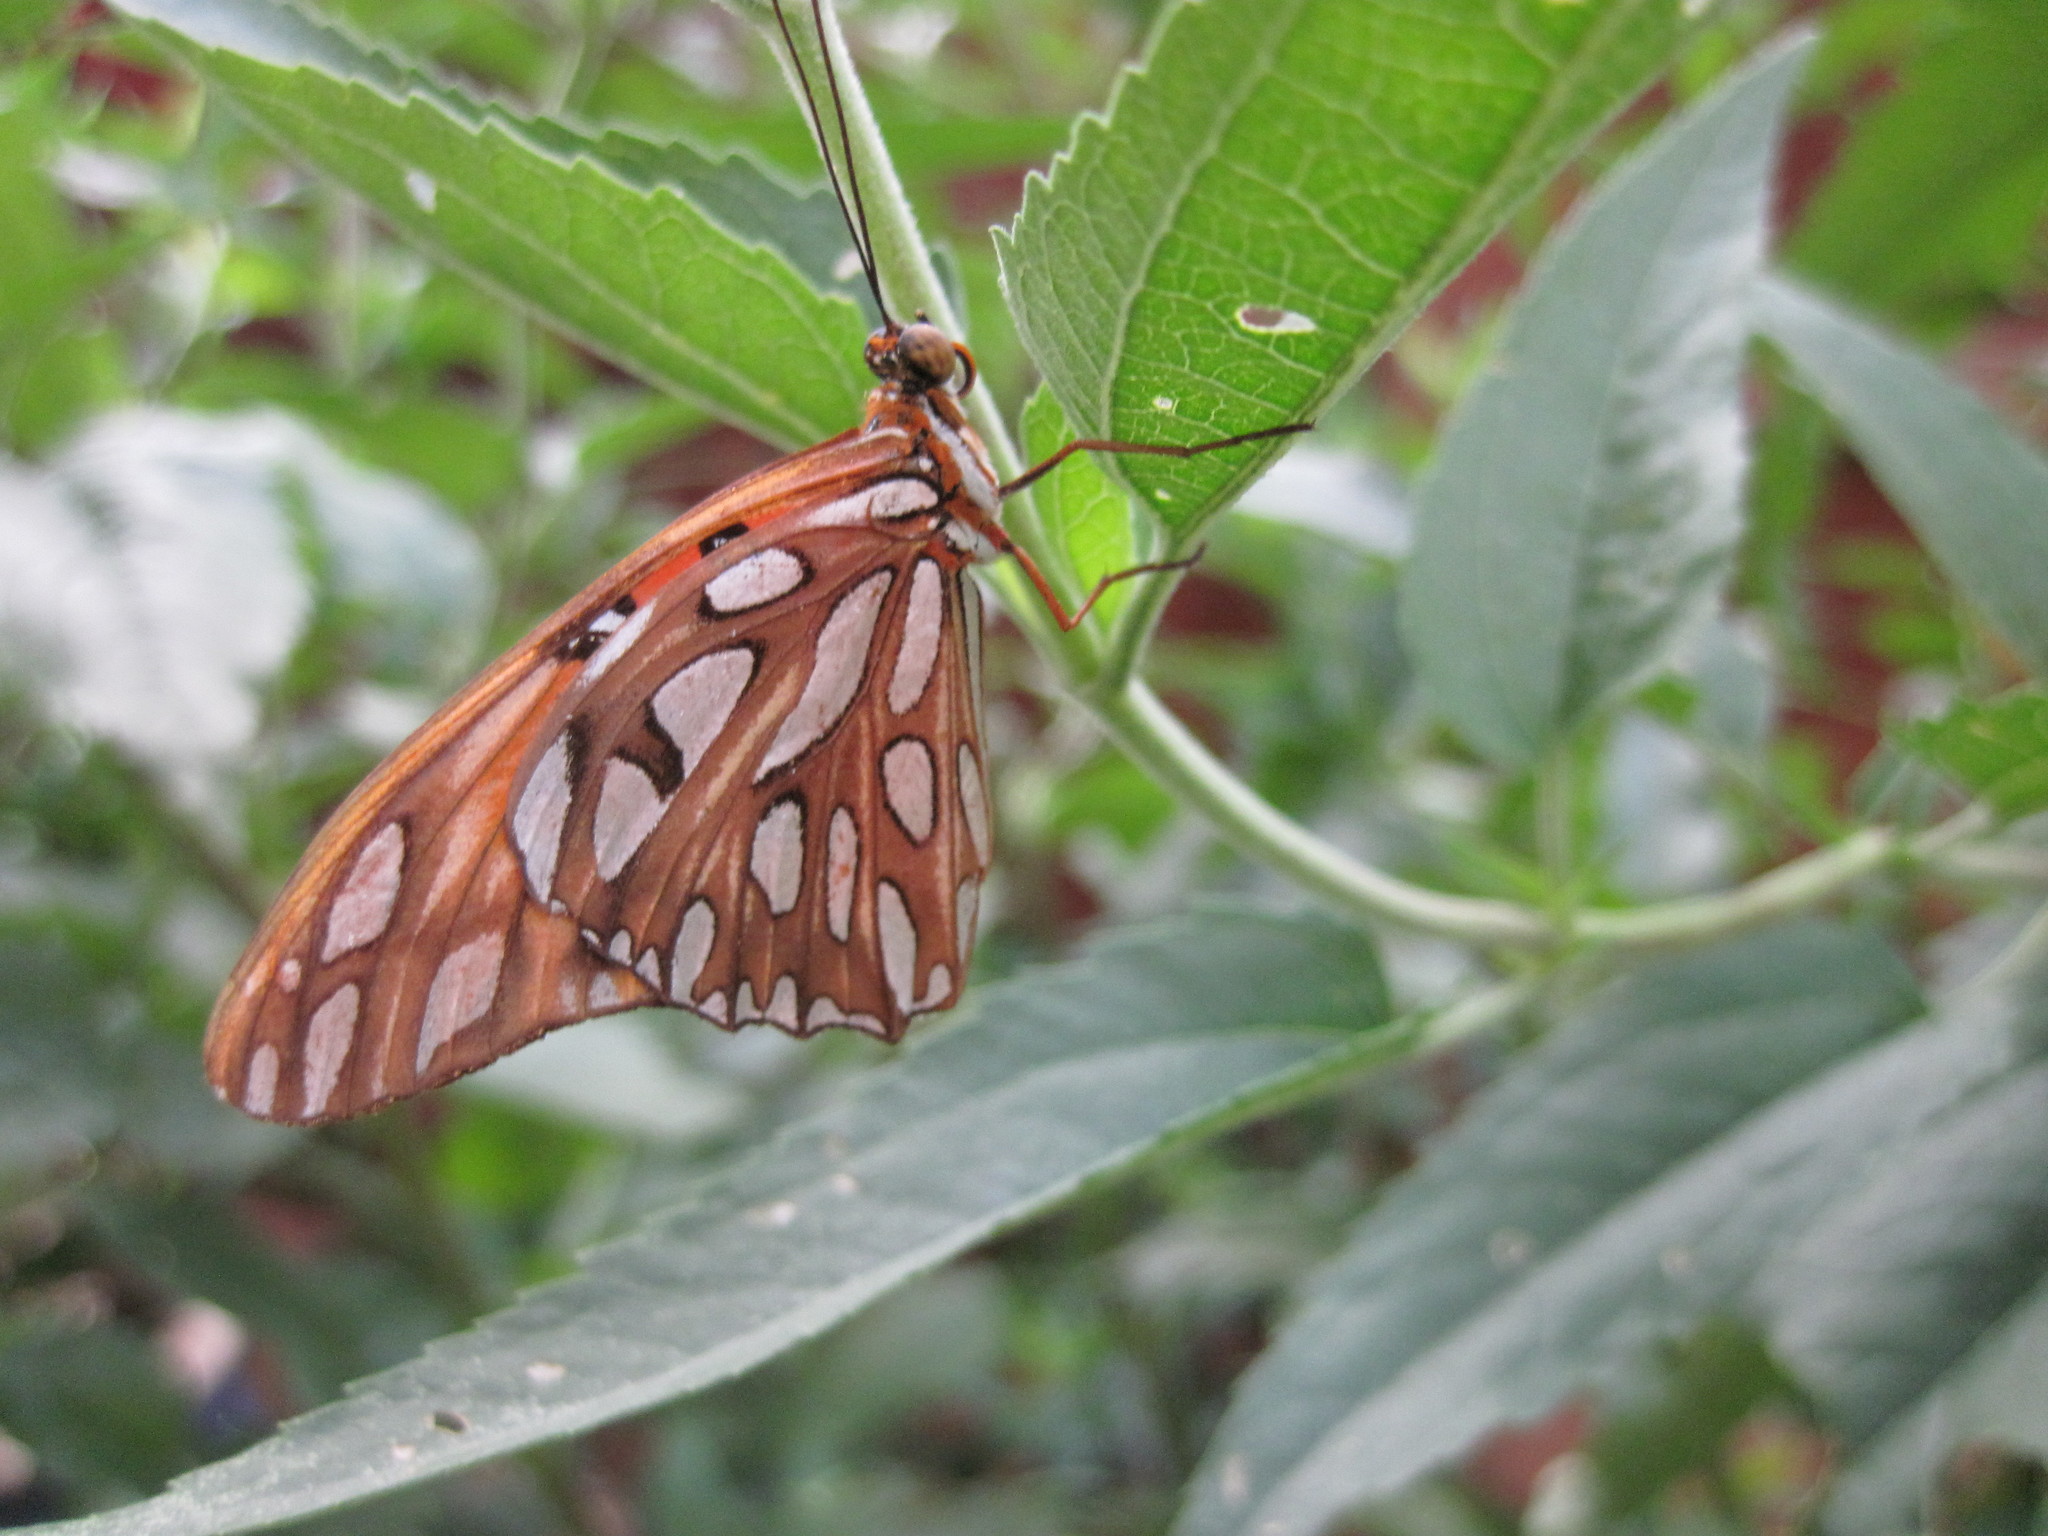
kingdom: Animalia
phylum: Arthropoda
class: Insecta
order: Lepidoptera
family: Nymphalidae
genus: Dione
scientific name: Dione vanillae
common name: Gulf fritillary
